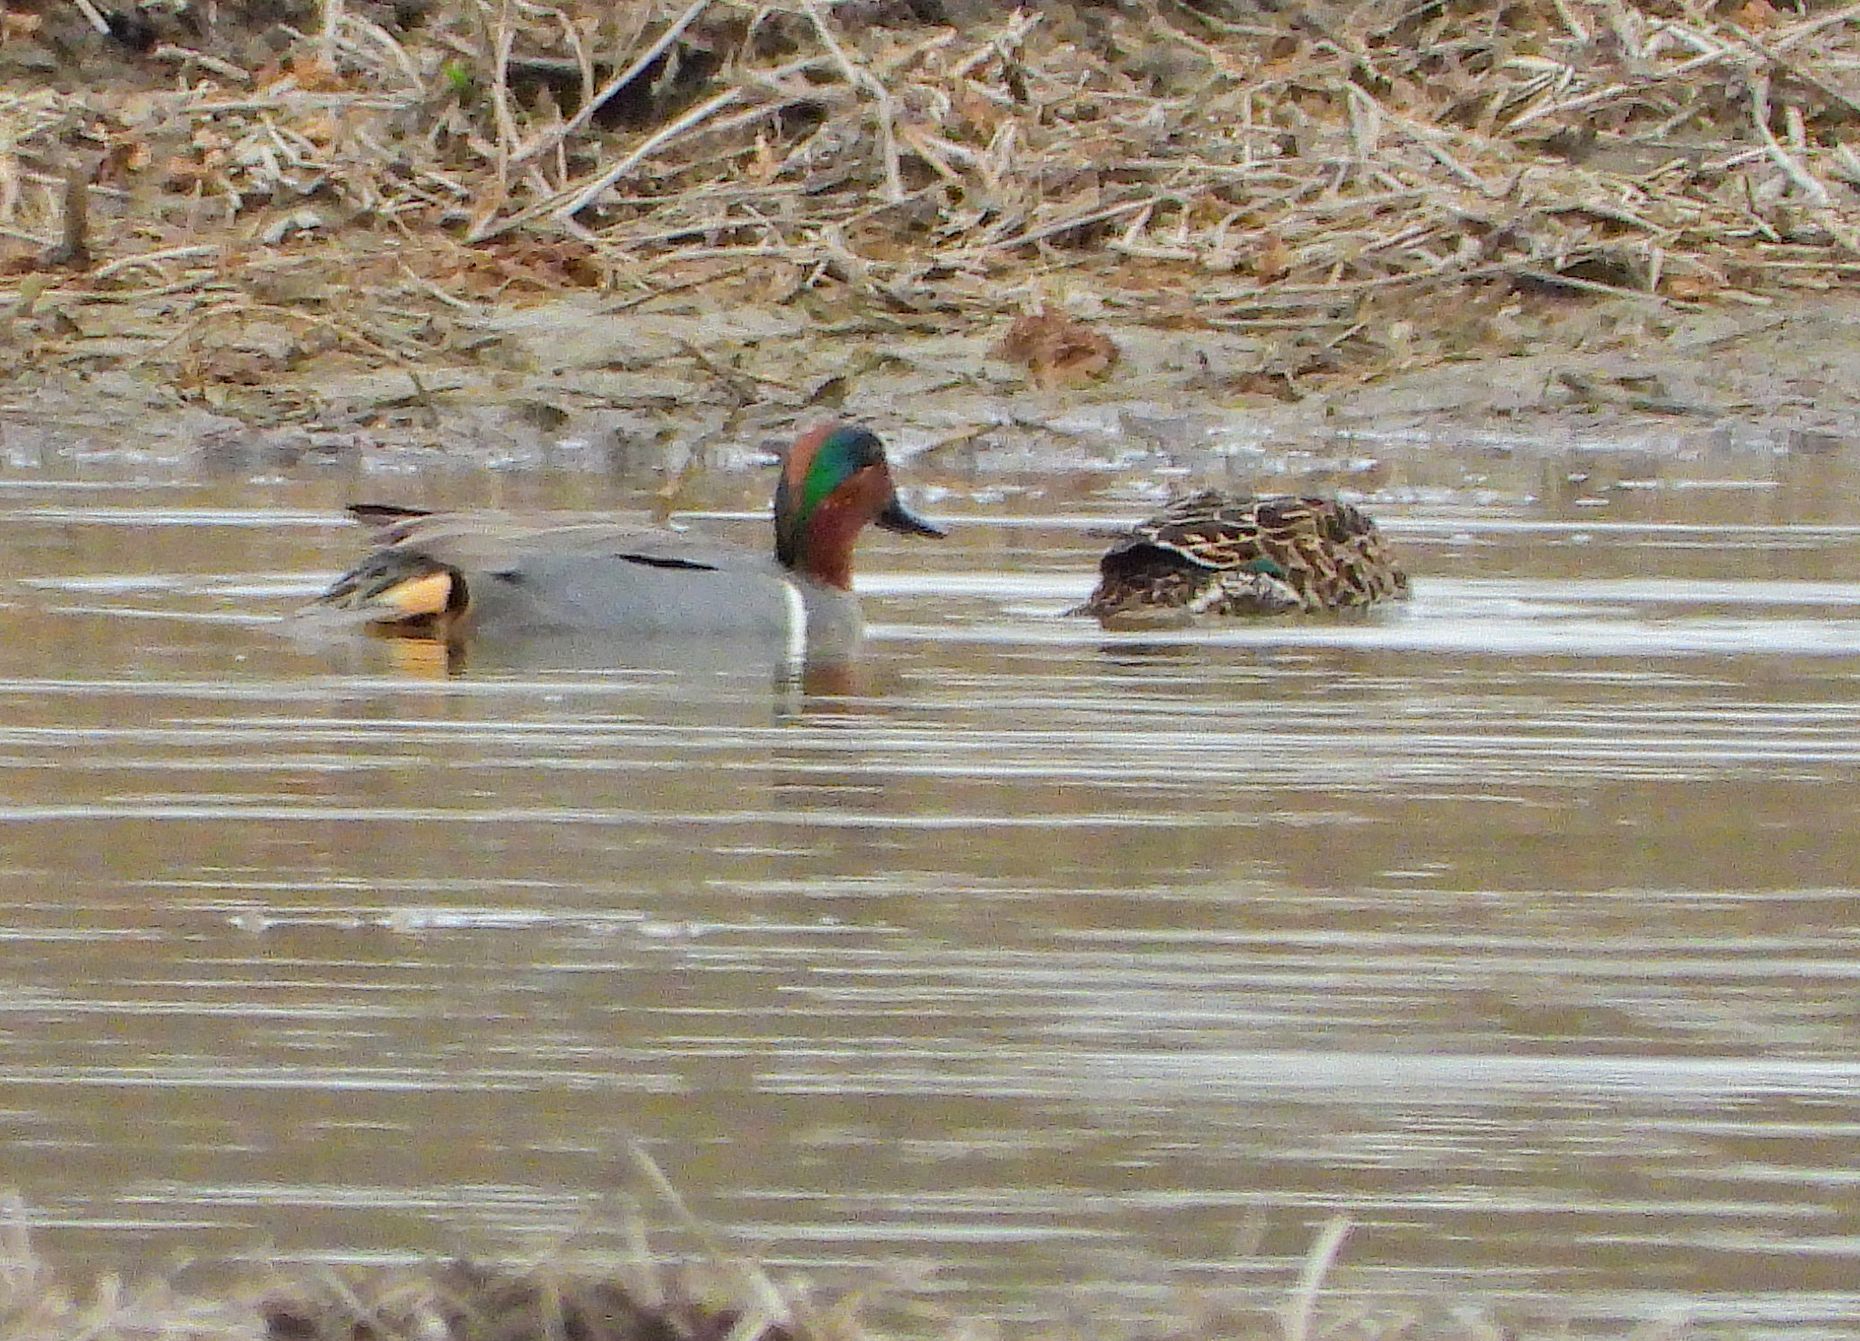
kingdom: Animalia
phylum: Chordata
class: Aves
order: Anseriformes
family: Anatidae
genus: Anas
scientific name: Anas crecca
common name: Eurasian teal
